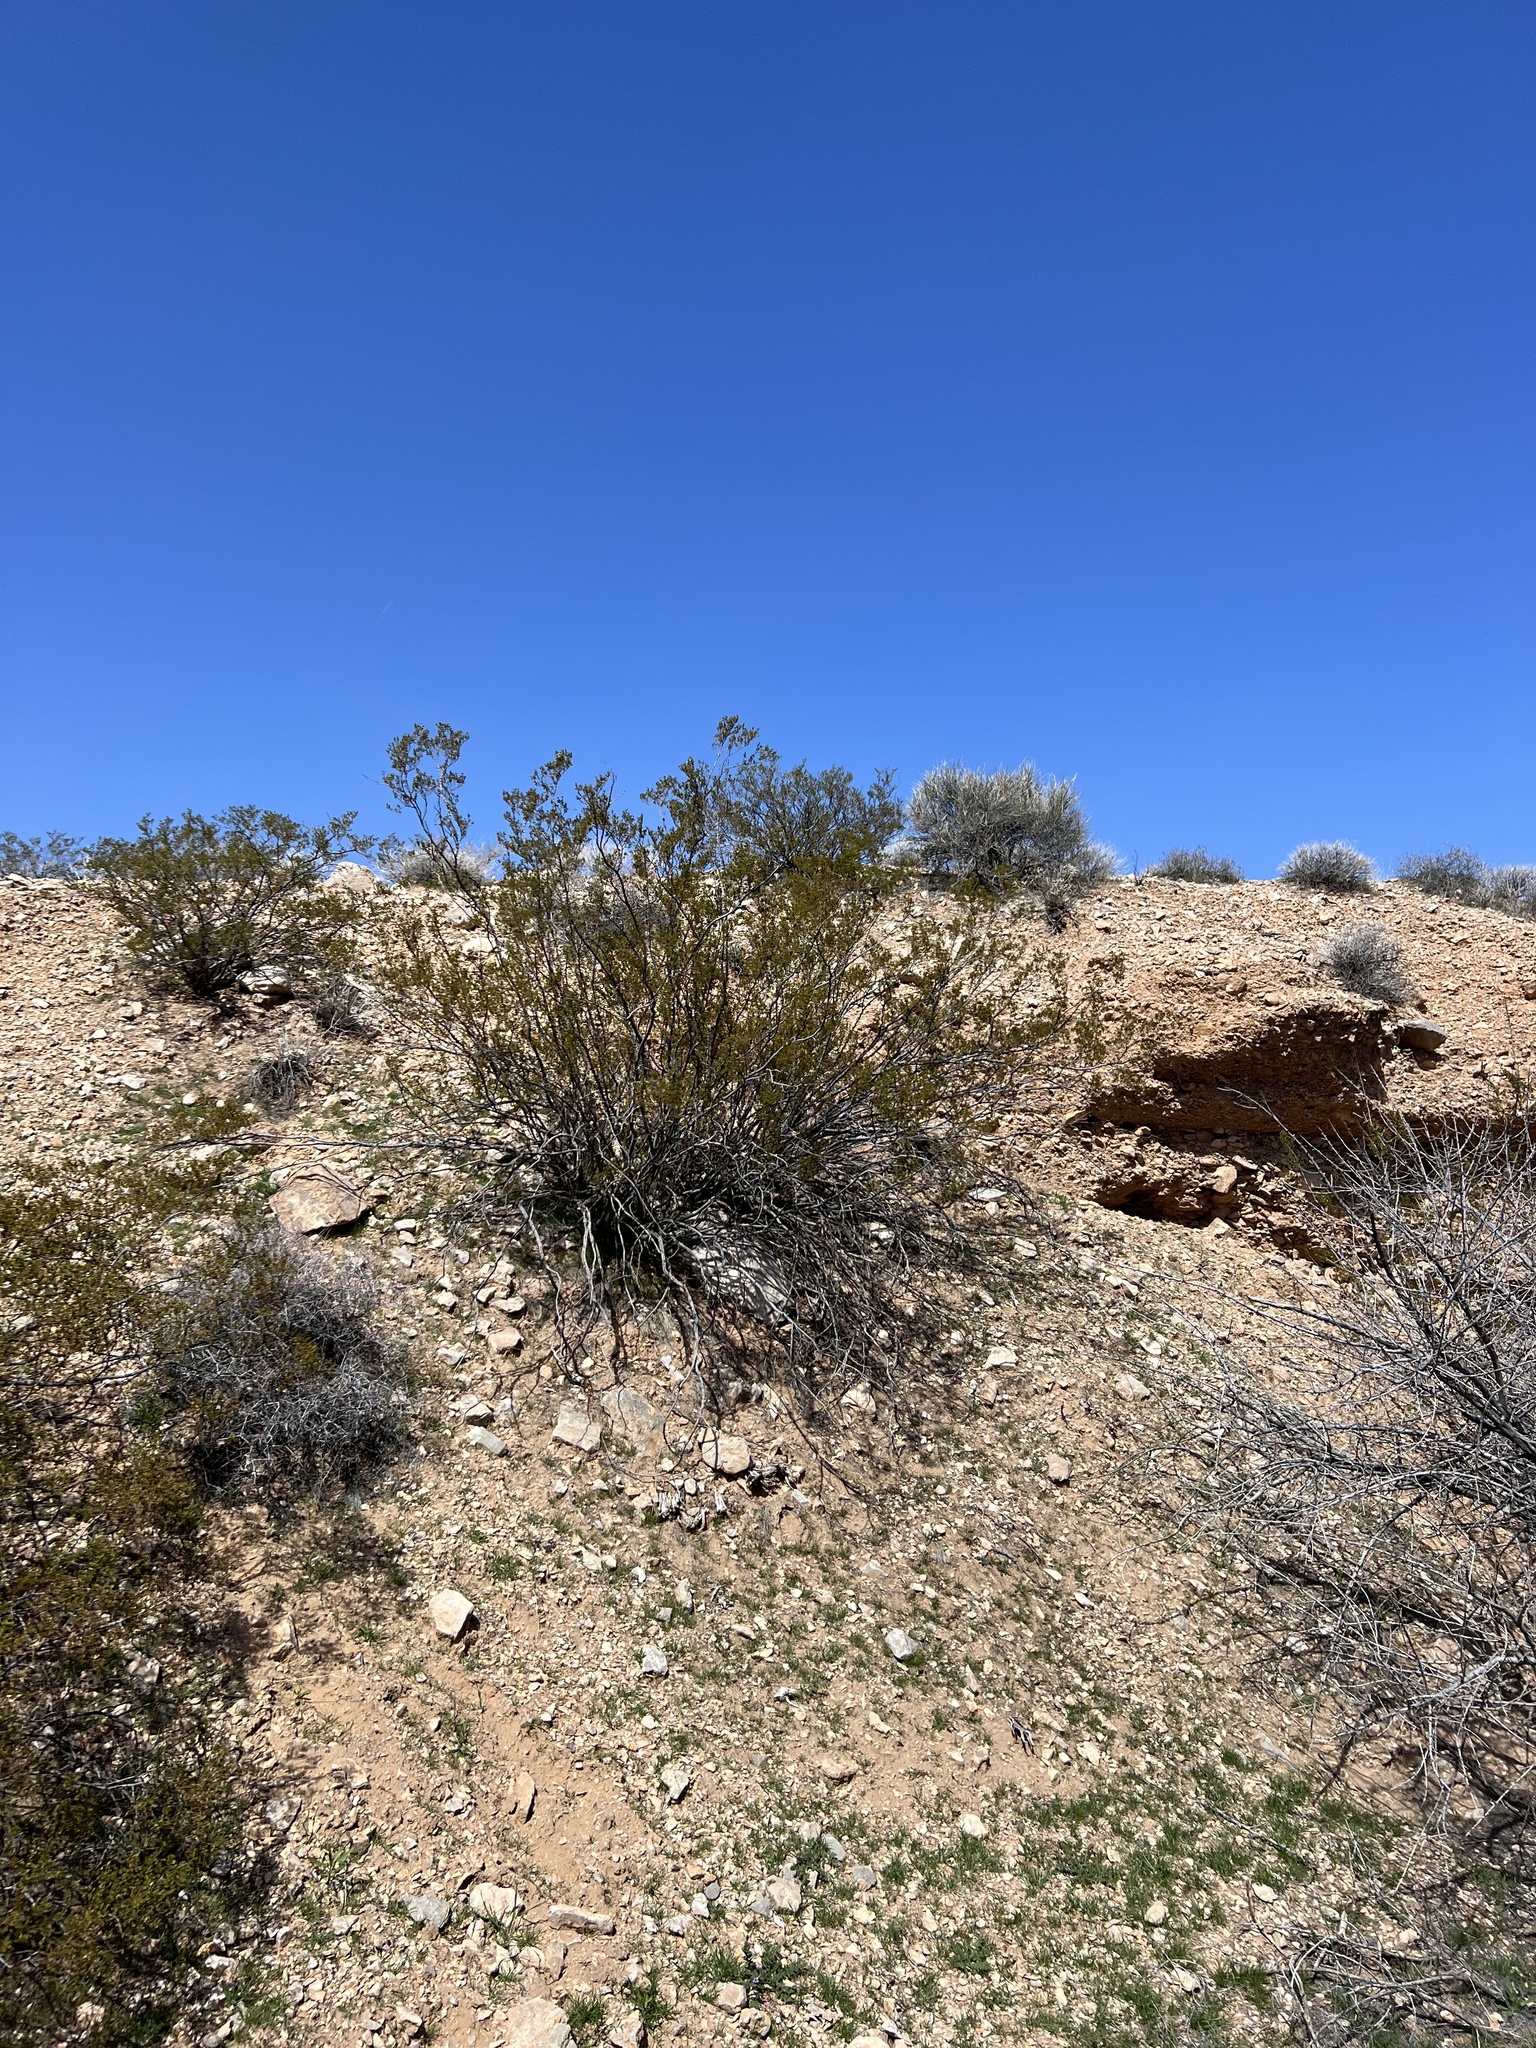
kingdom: Plantae
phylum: Tracheophyta
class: Magnoliopsida
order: Zygophyllales
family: Zygophyllaceae
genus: Larrea
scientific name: Larrea tridentata
